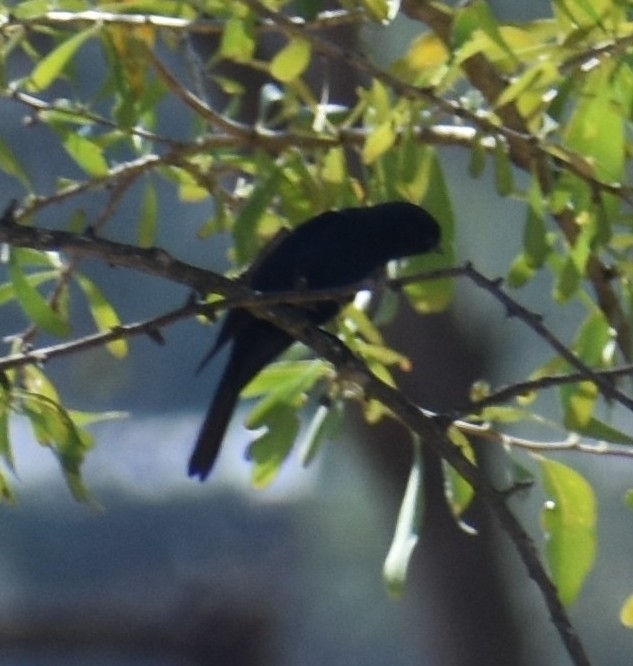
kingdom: Animalia
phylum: Chordata
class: Aves
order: Passeriformes
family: Muscicapidae
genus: Melaenornis
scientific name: Melaenornis pammelaina
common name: Southern black flycatcher
